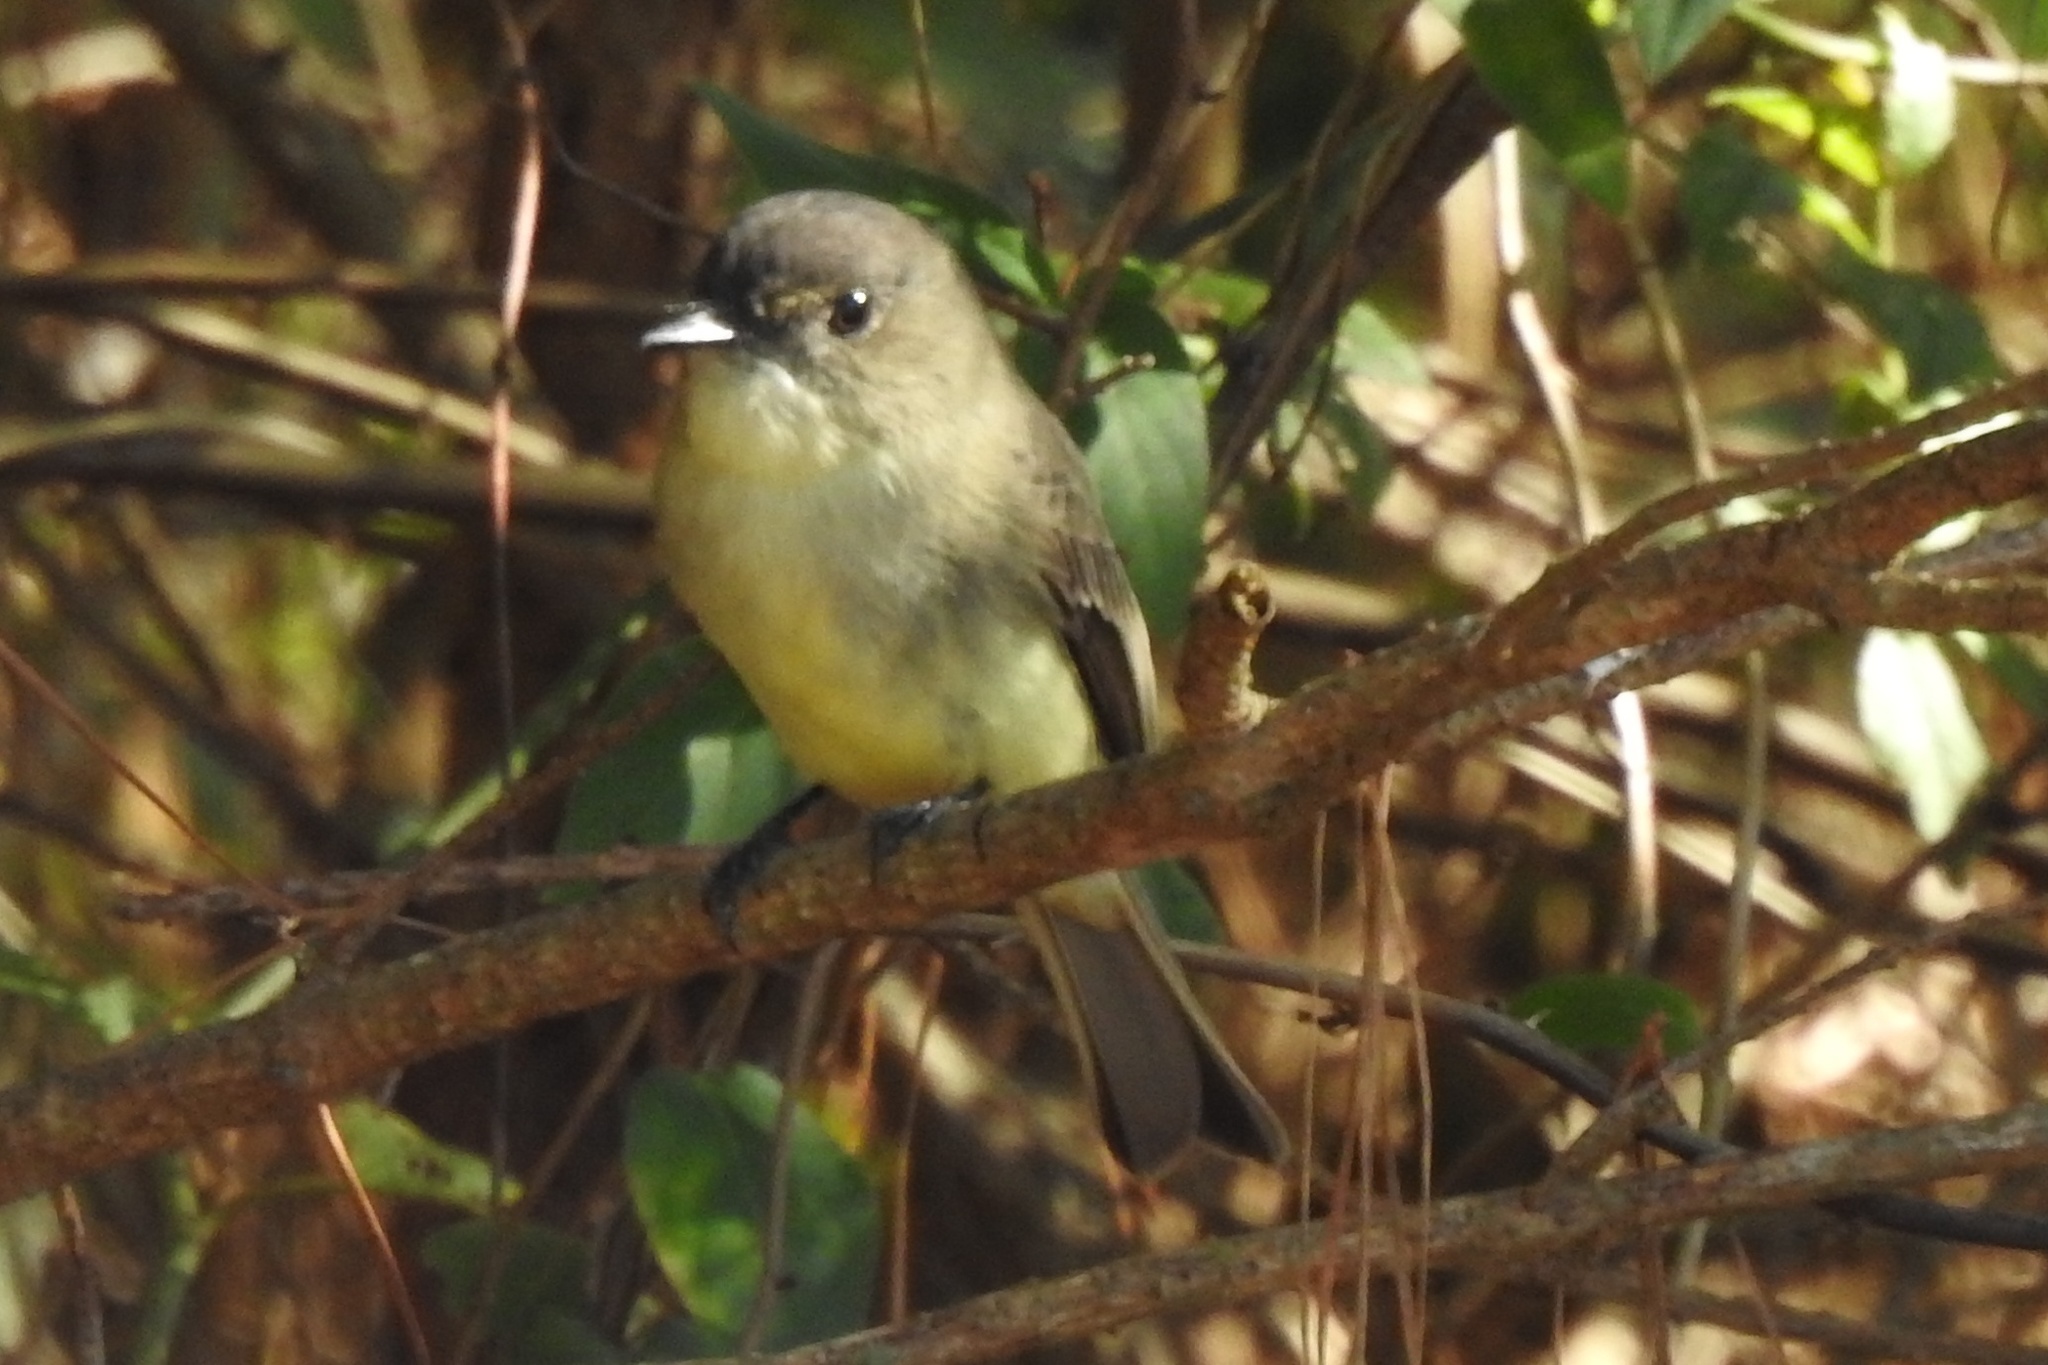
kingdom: Animalia
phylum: Chordata
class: Aves
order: Passeriformes
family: Tyrannidae
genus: Sayornis
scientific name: Sayornis phoebe
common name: Eastern phoebe
